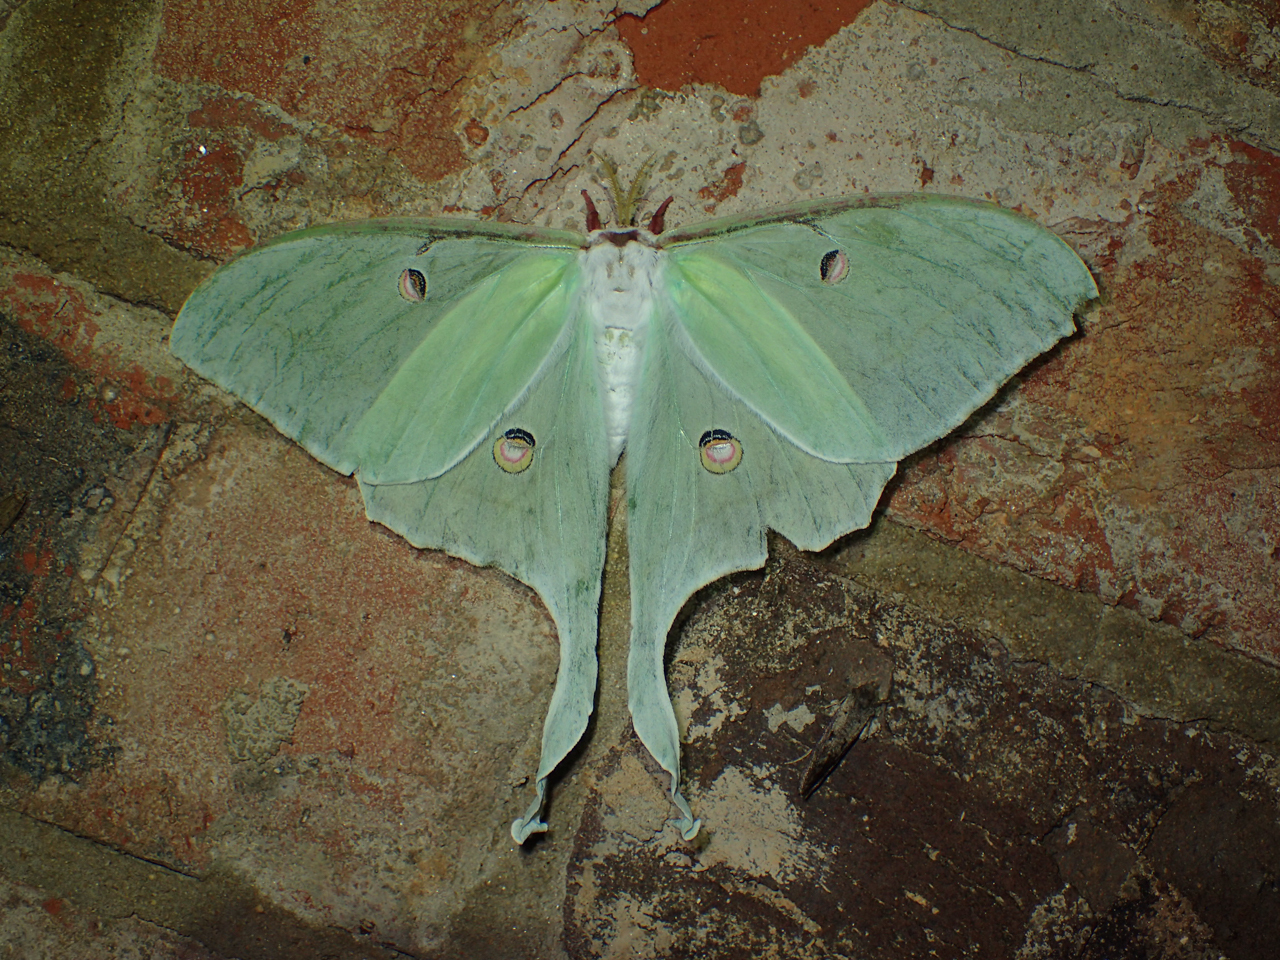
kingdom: Animalia
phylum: Arthropoda
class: Insecta
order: Lepidoptera
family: Saturniidae
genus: Actias
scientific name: Actias luna
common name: Luna moth
